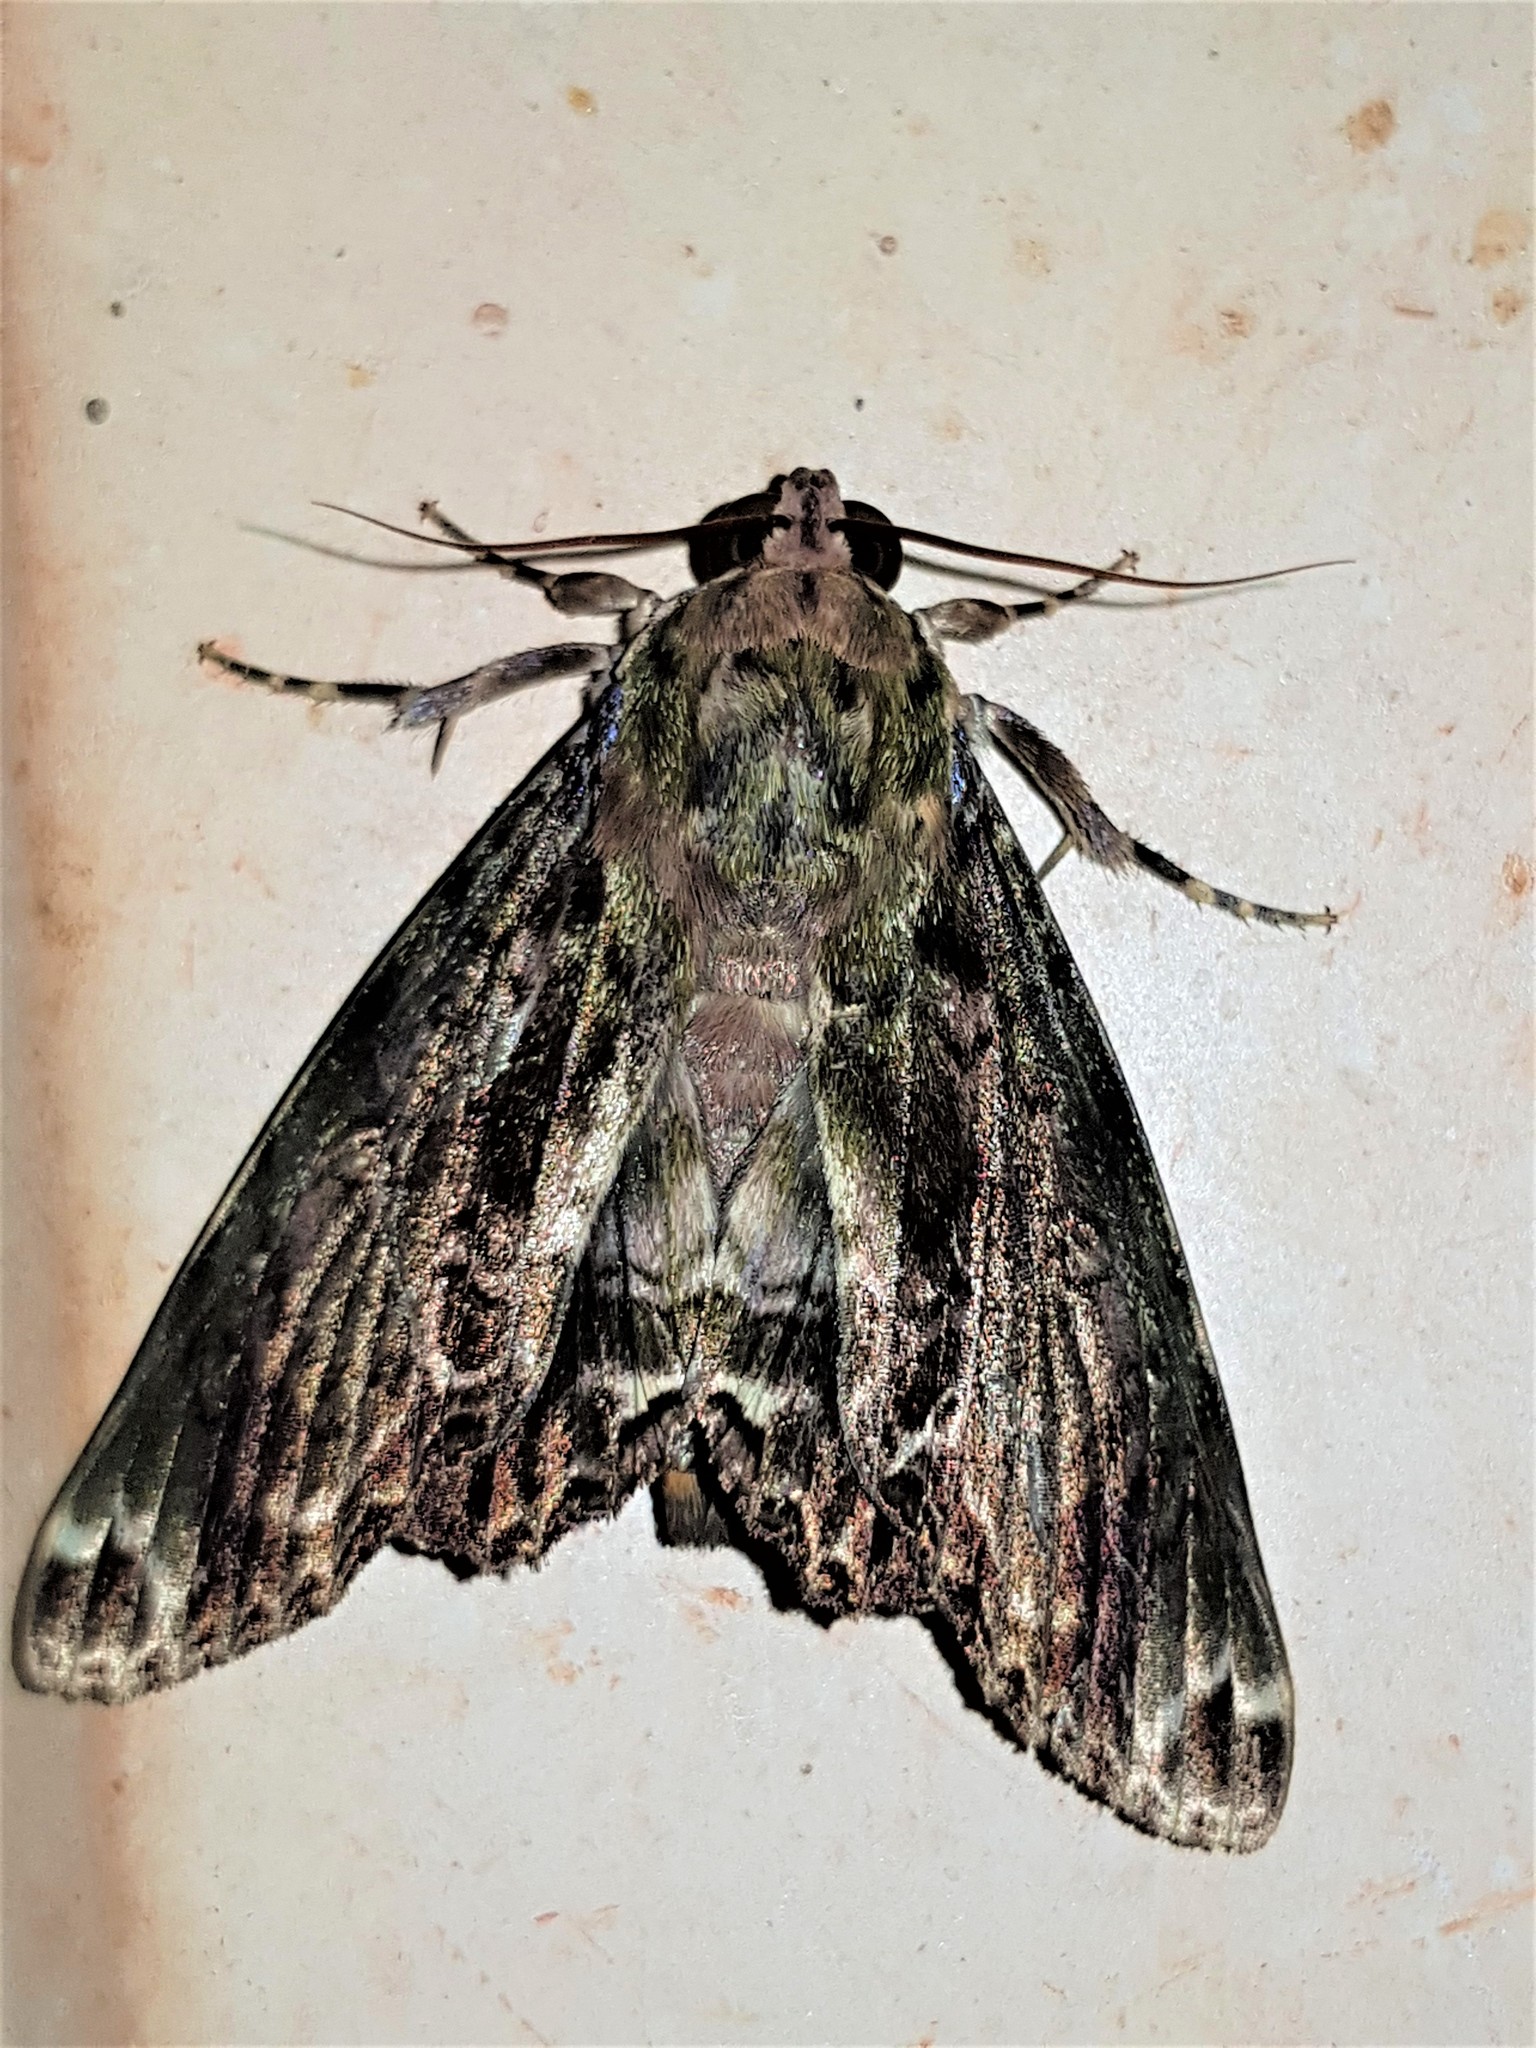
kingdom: Animalia
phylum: Arthropoda
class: Insecta
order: Lepidoptera
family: Erebidae
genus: Pararcte
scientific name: Pararcte schneideriana
